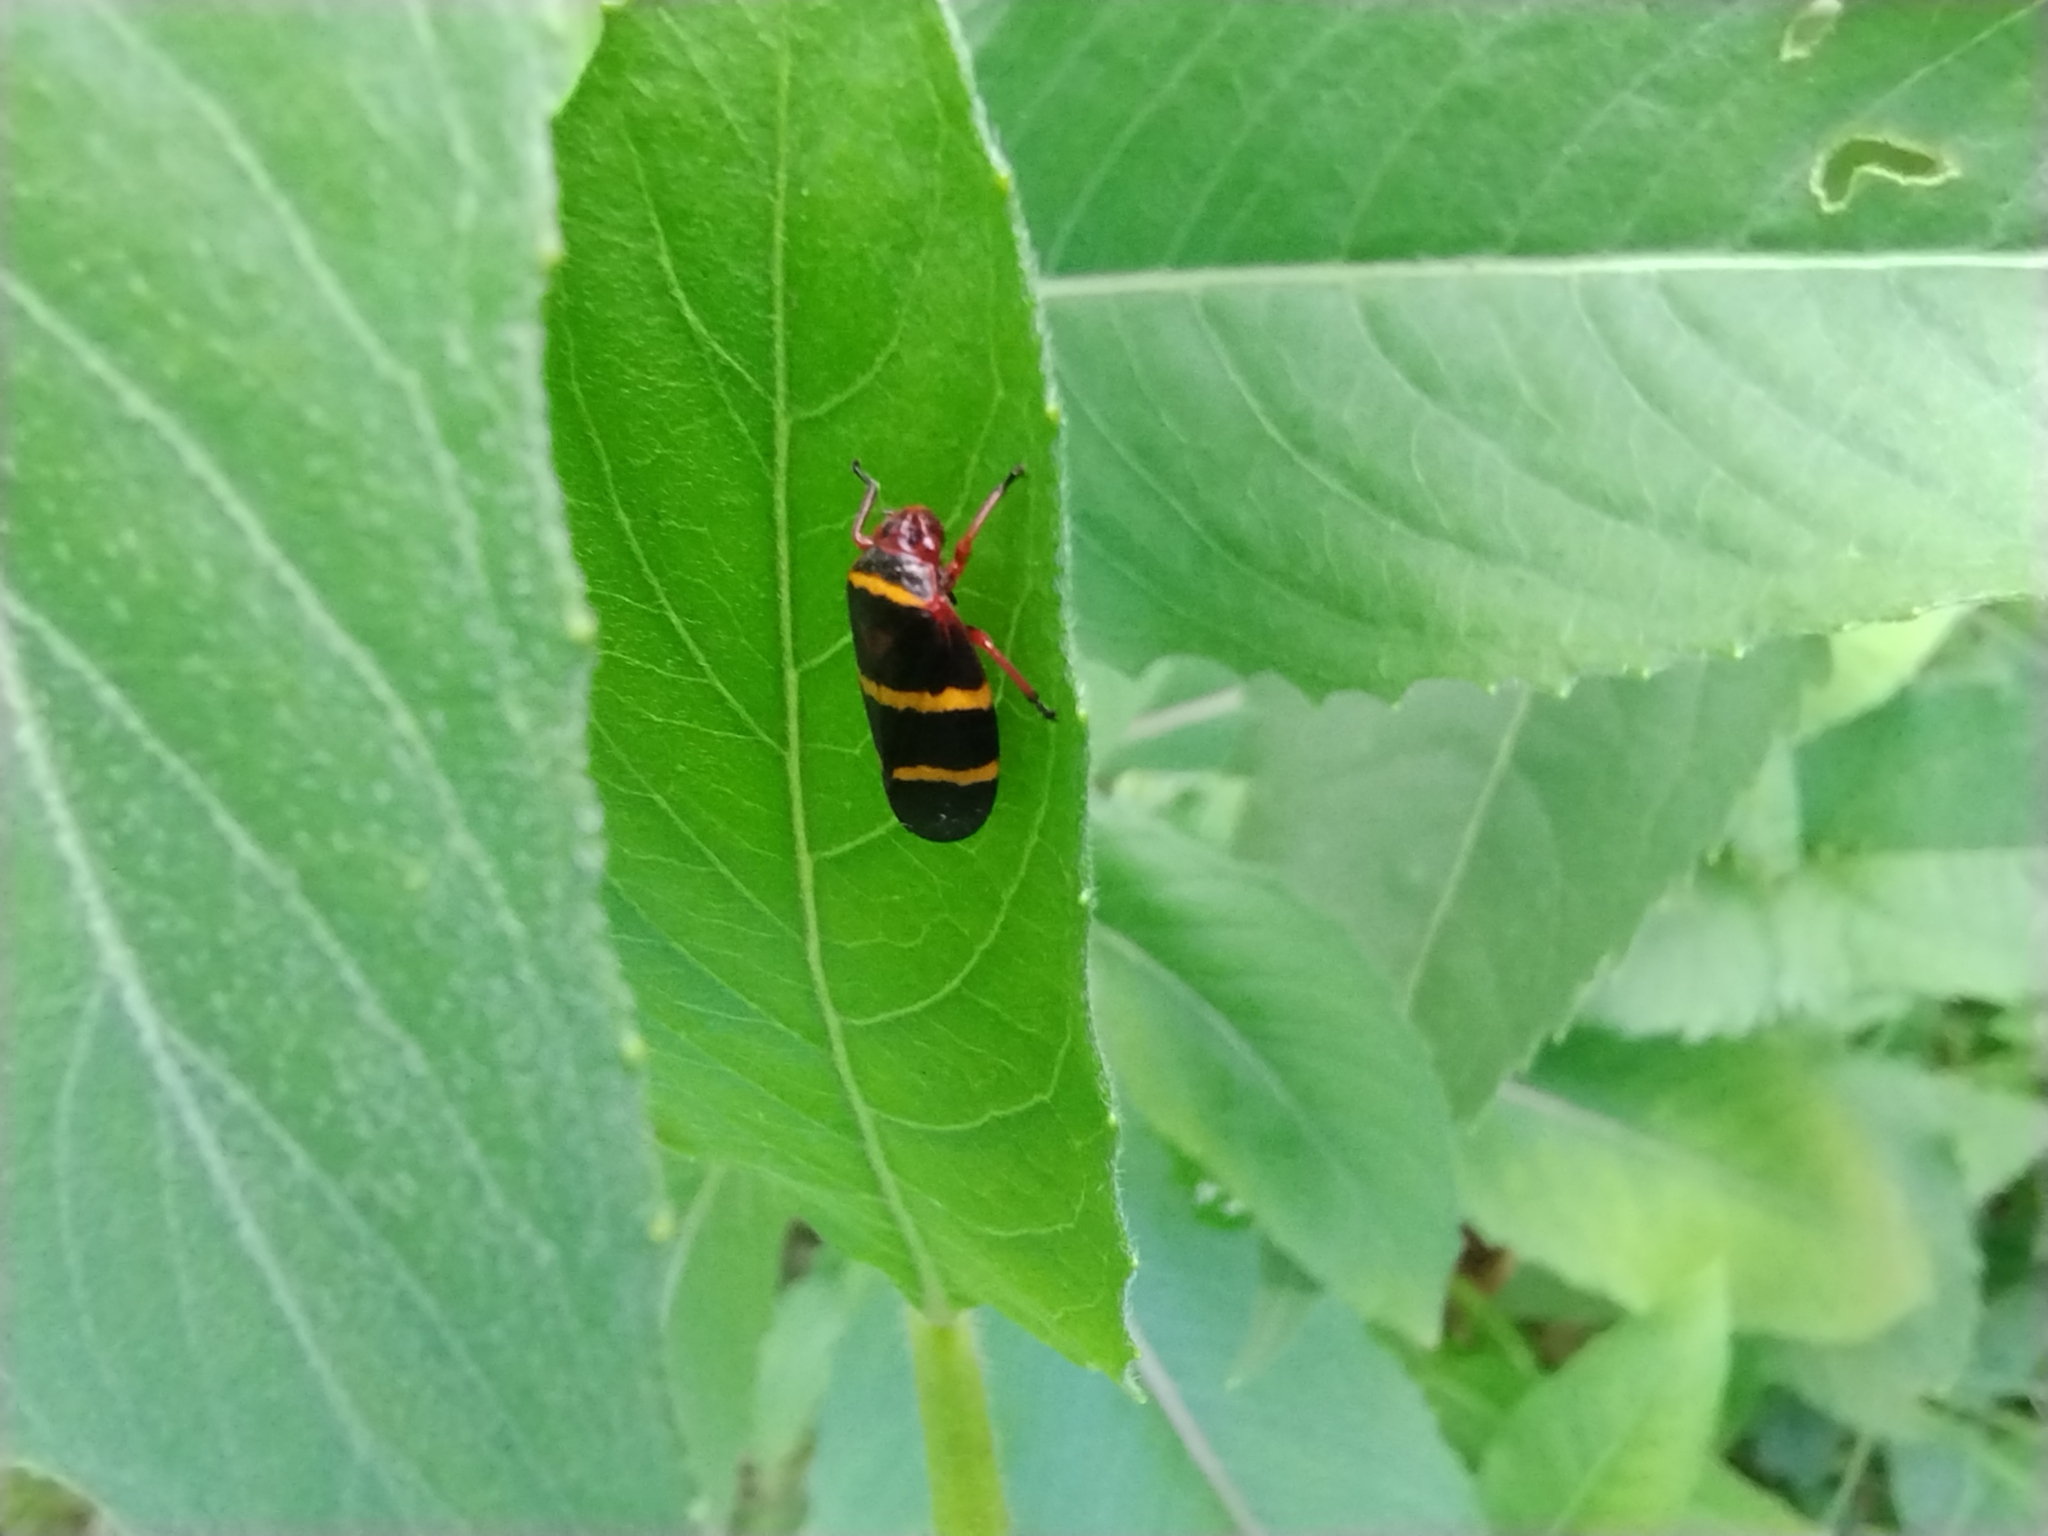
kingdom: Animalia
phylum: Arthropoda
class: Insecta
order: Hemiptera
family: Cercopidae
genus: Prosapia
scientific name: Prosapia bicincta
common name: Twolined spittlebug
